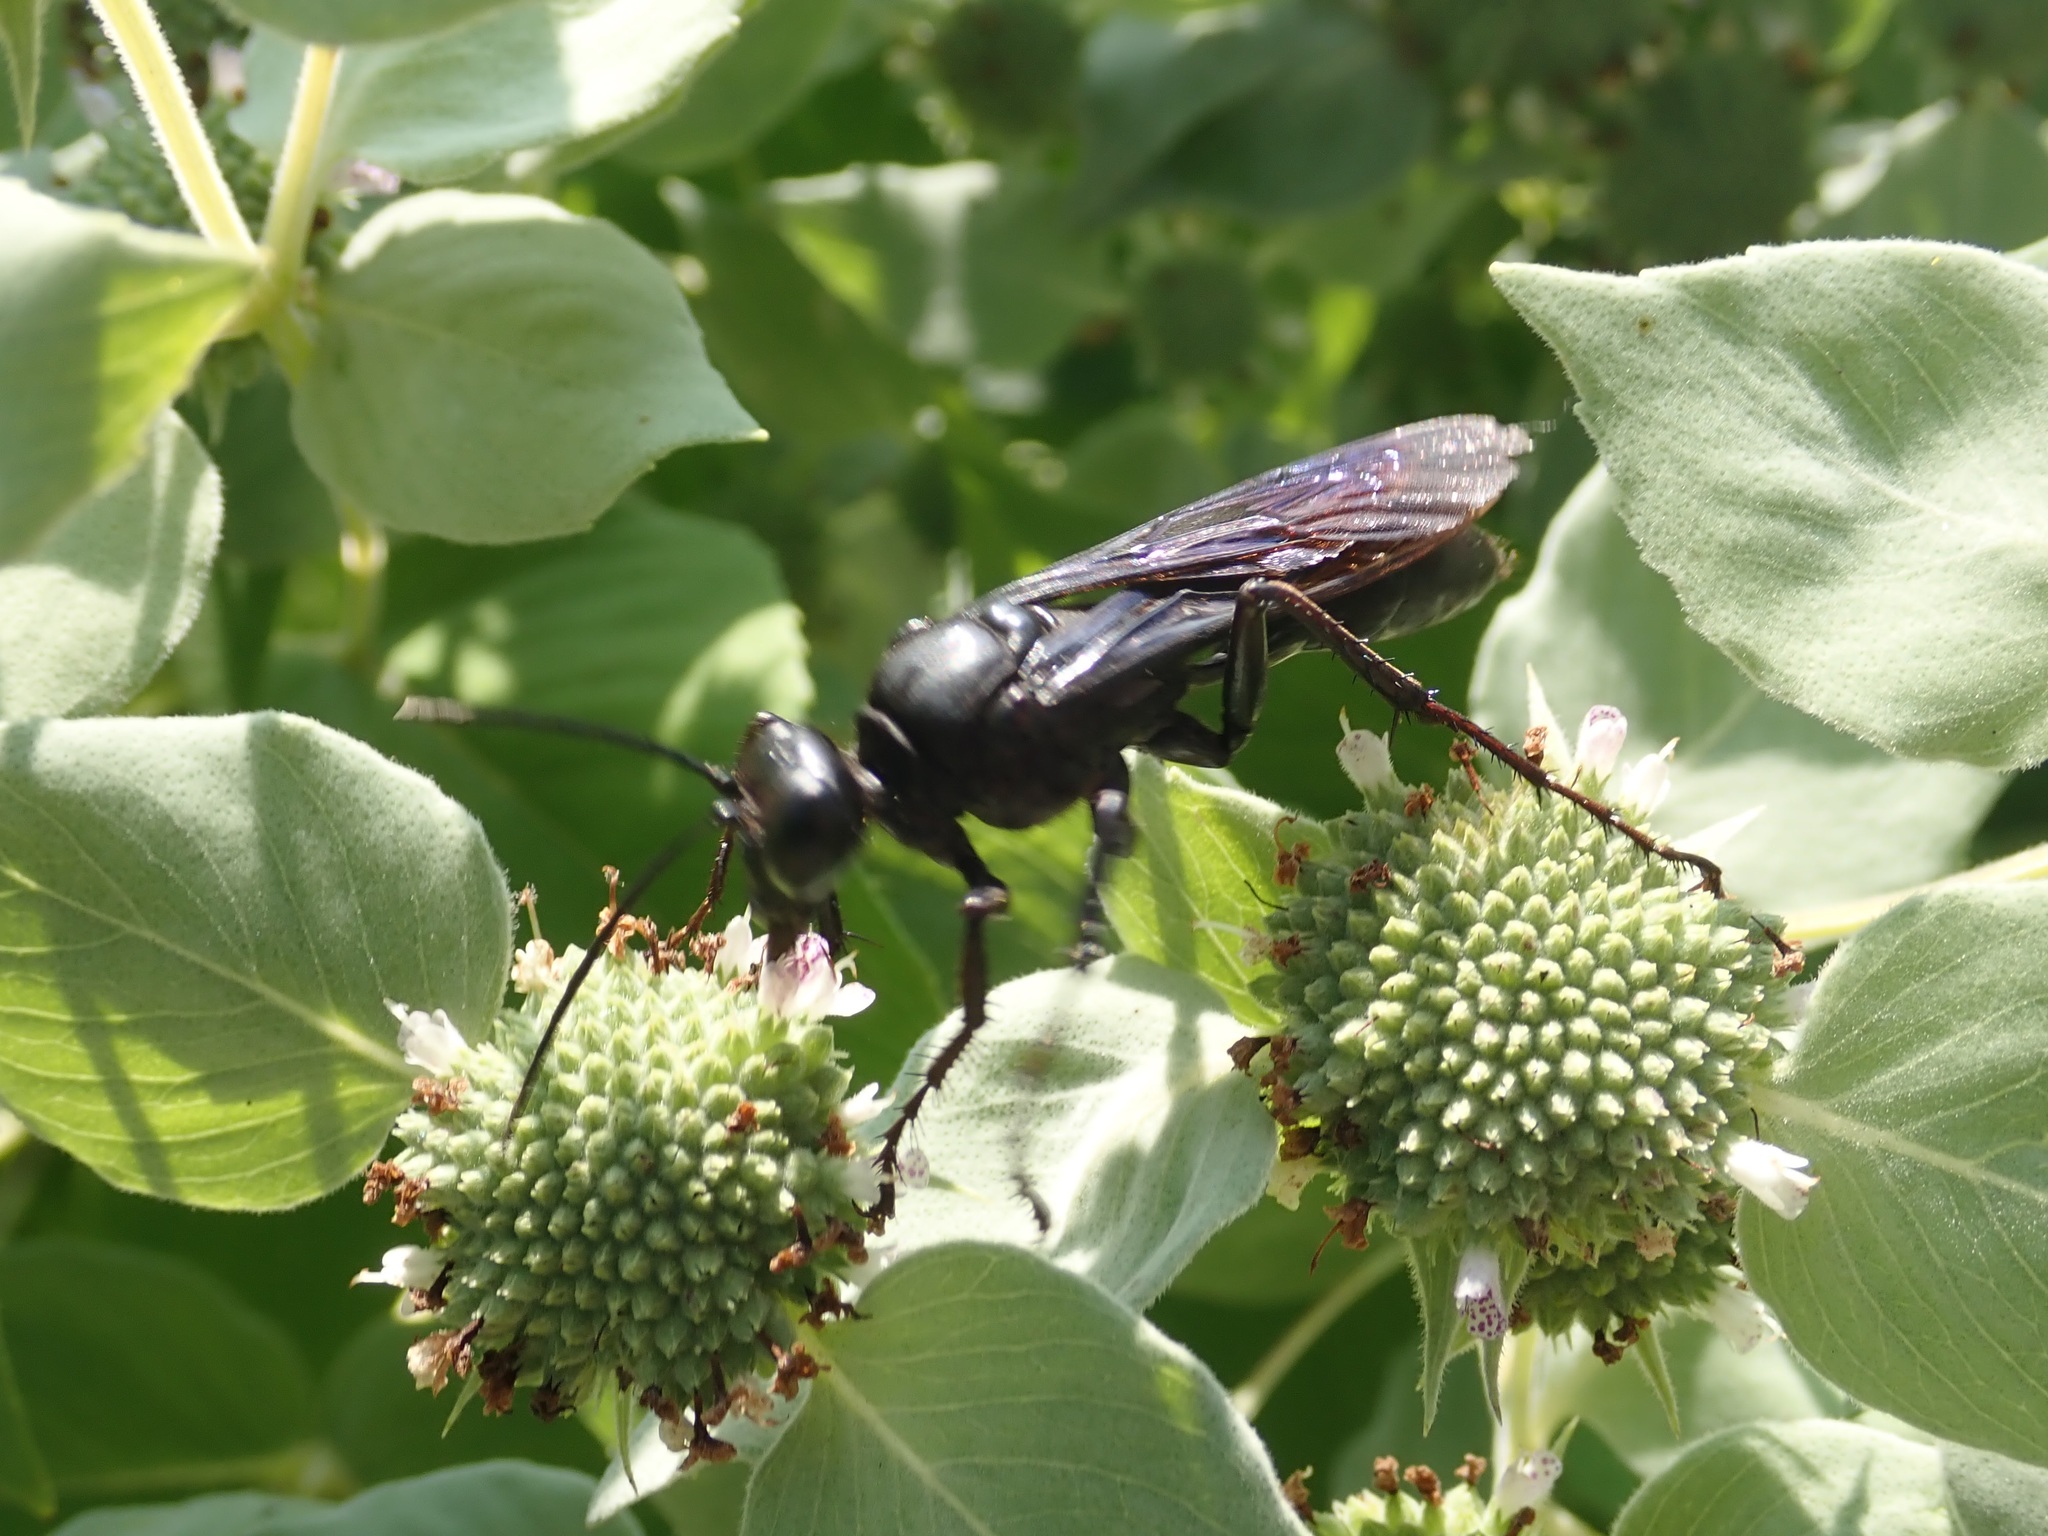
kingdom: Animalia
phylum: Arthropoda
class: Insecta
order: Hymenoptera
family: Sphecidae
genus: Sphex
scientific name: Sphex pensylvanicus
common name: Great black digger wasp
